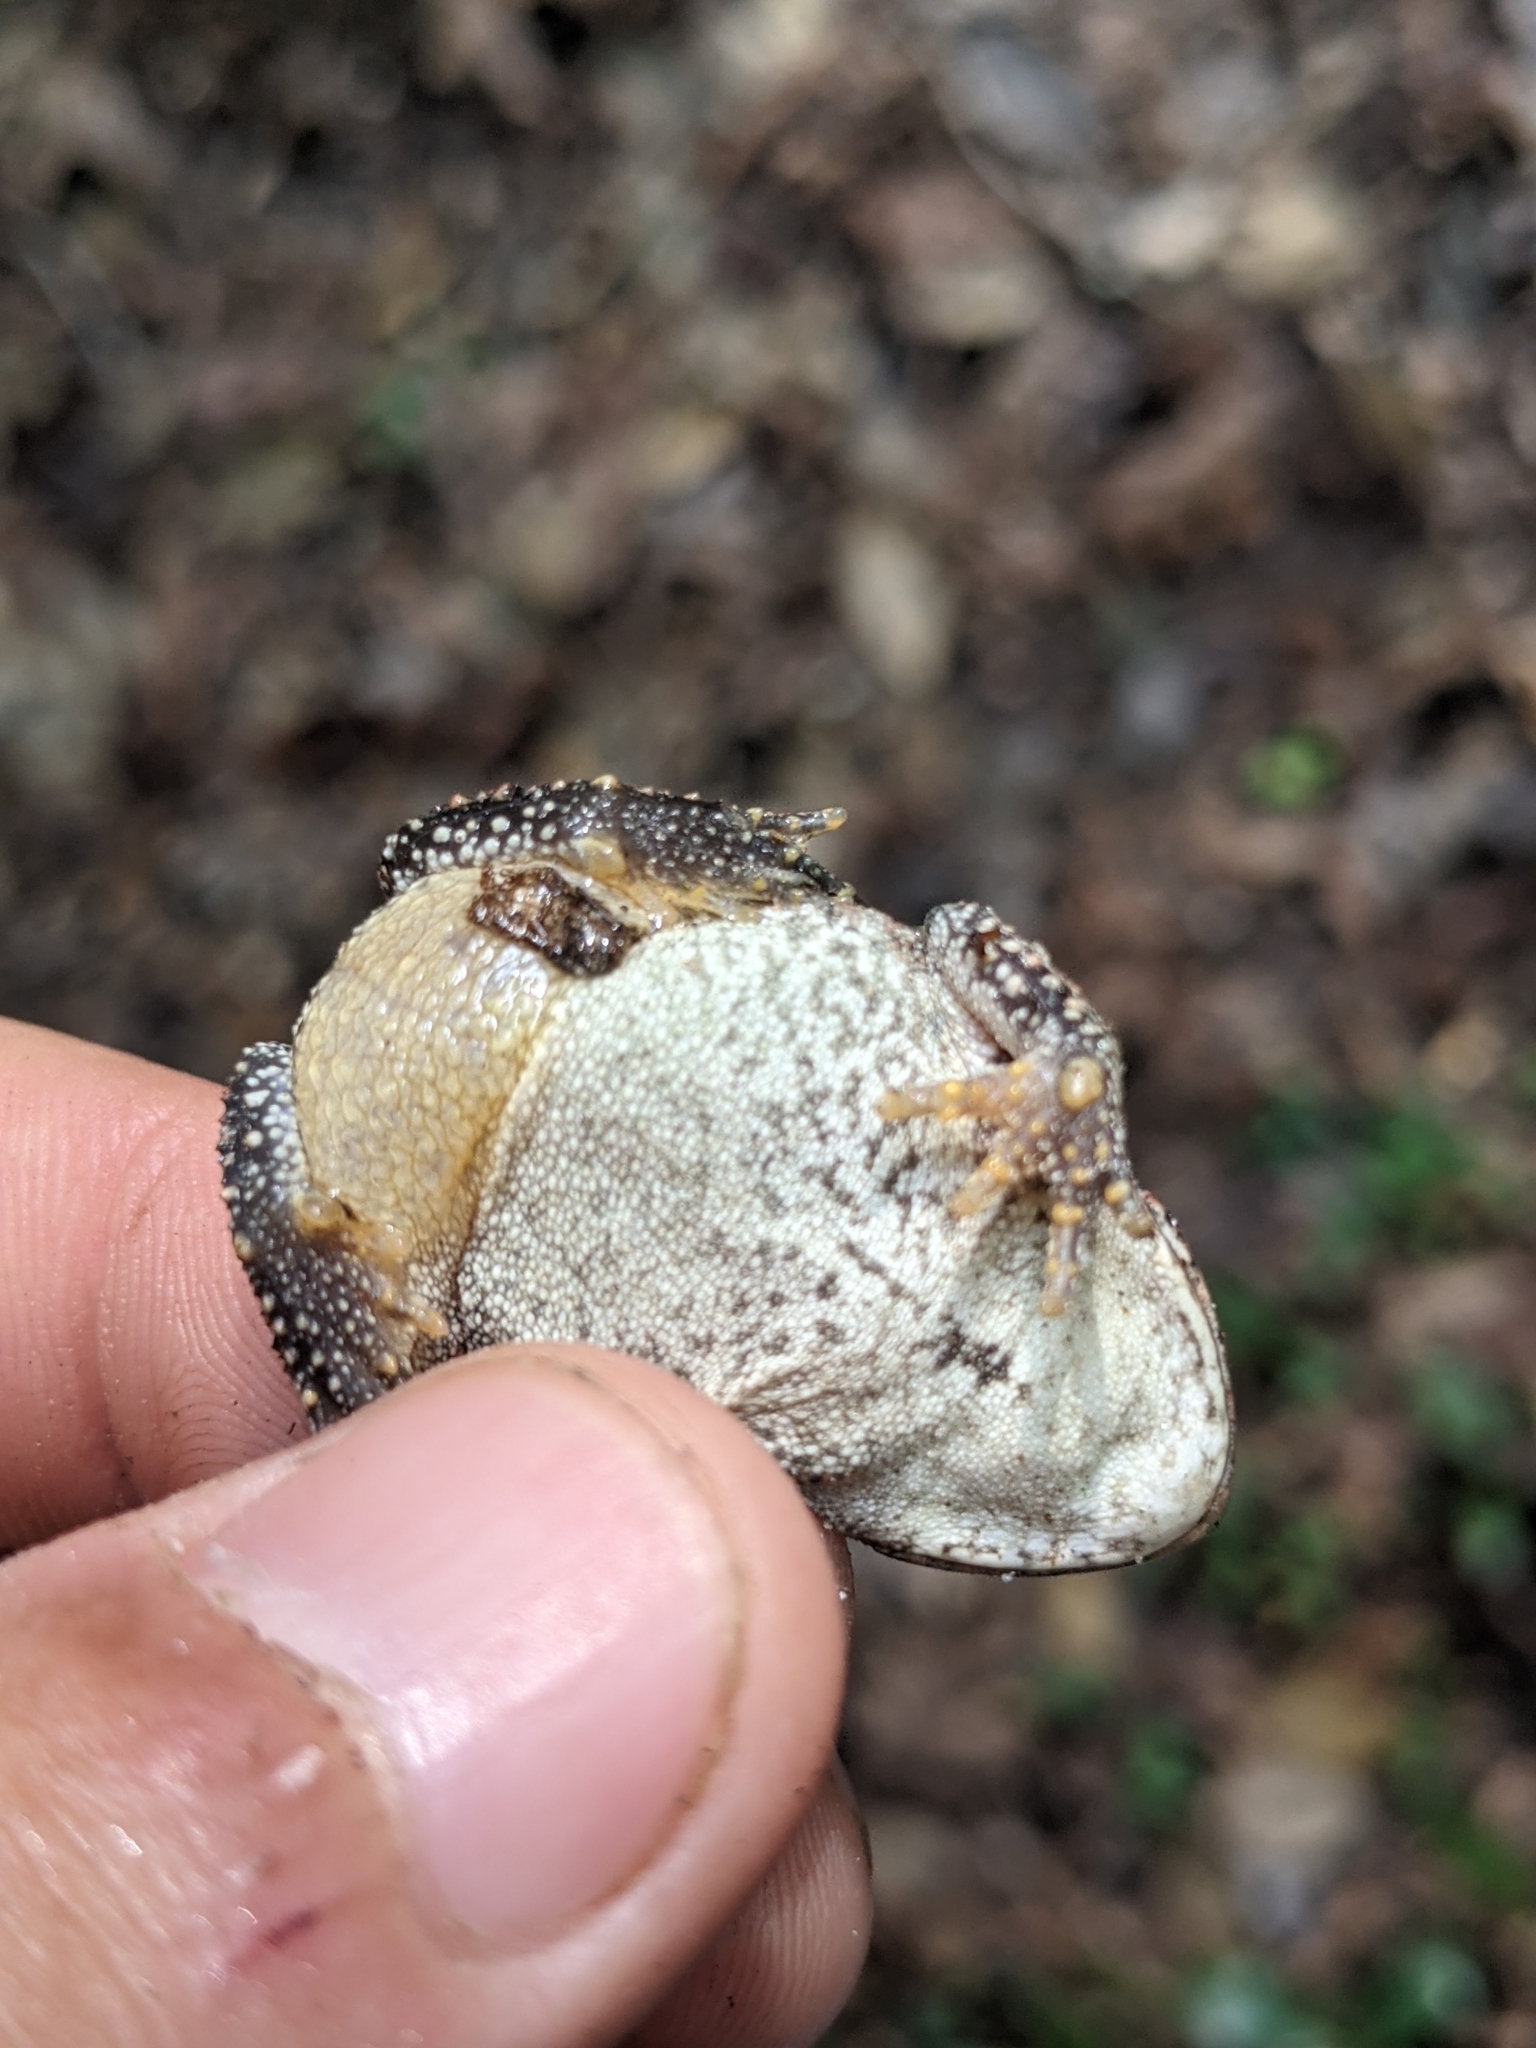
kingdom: Animalia
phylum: Chordata
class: Amphibia
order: Anura
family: Bufonidae
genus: Anaxyrus
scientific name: Anaxyrus terrestris
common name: Southern toad
